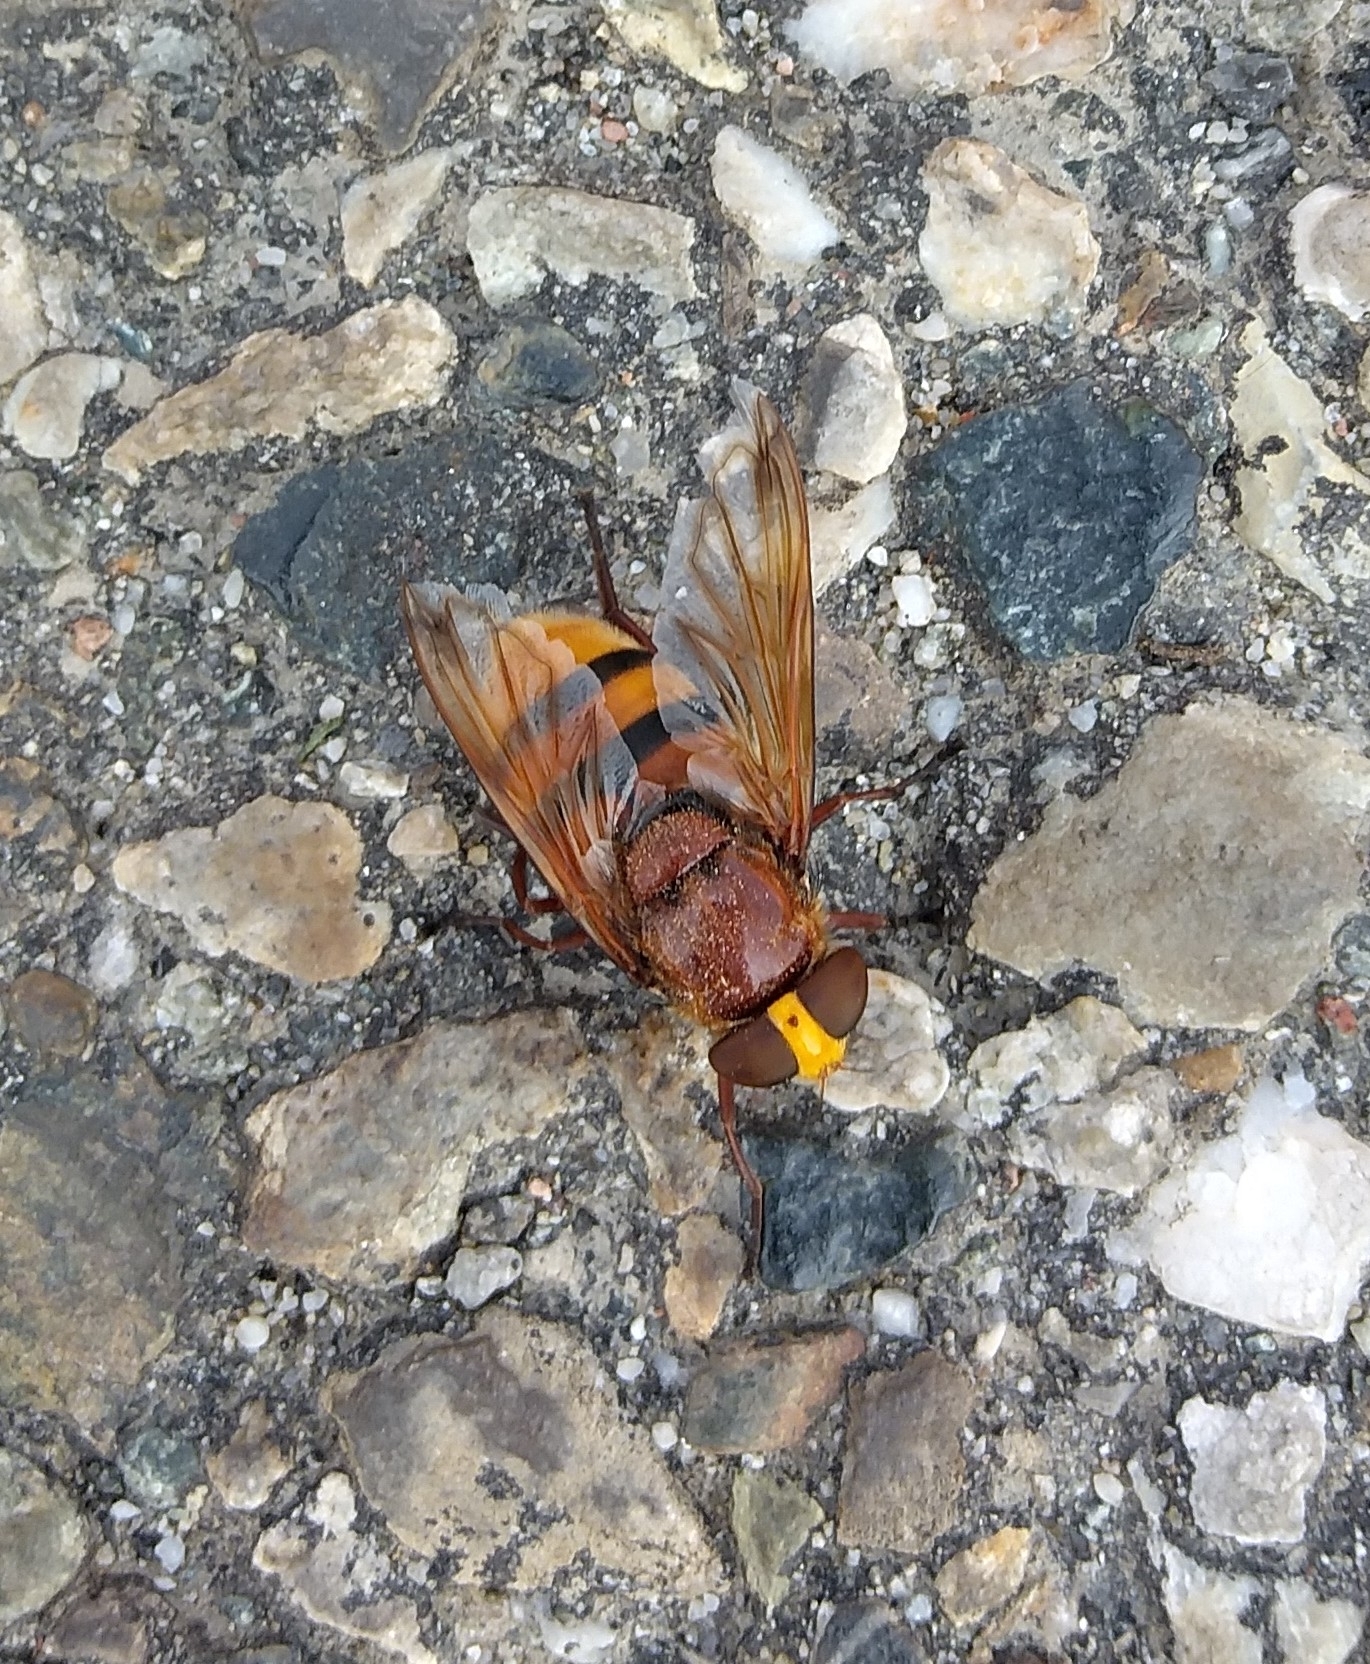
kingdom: Animalia
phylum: Arthropoda
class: Insecta
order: Diptera
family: Syrphidae
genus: Volucella
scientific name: Volucella zonaria
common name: Hornet hoverfly
